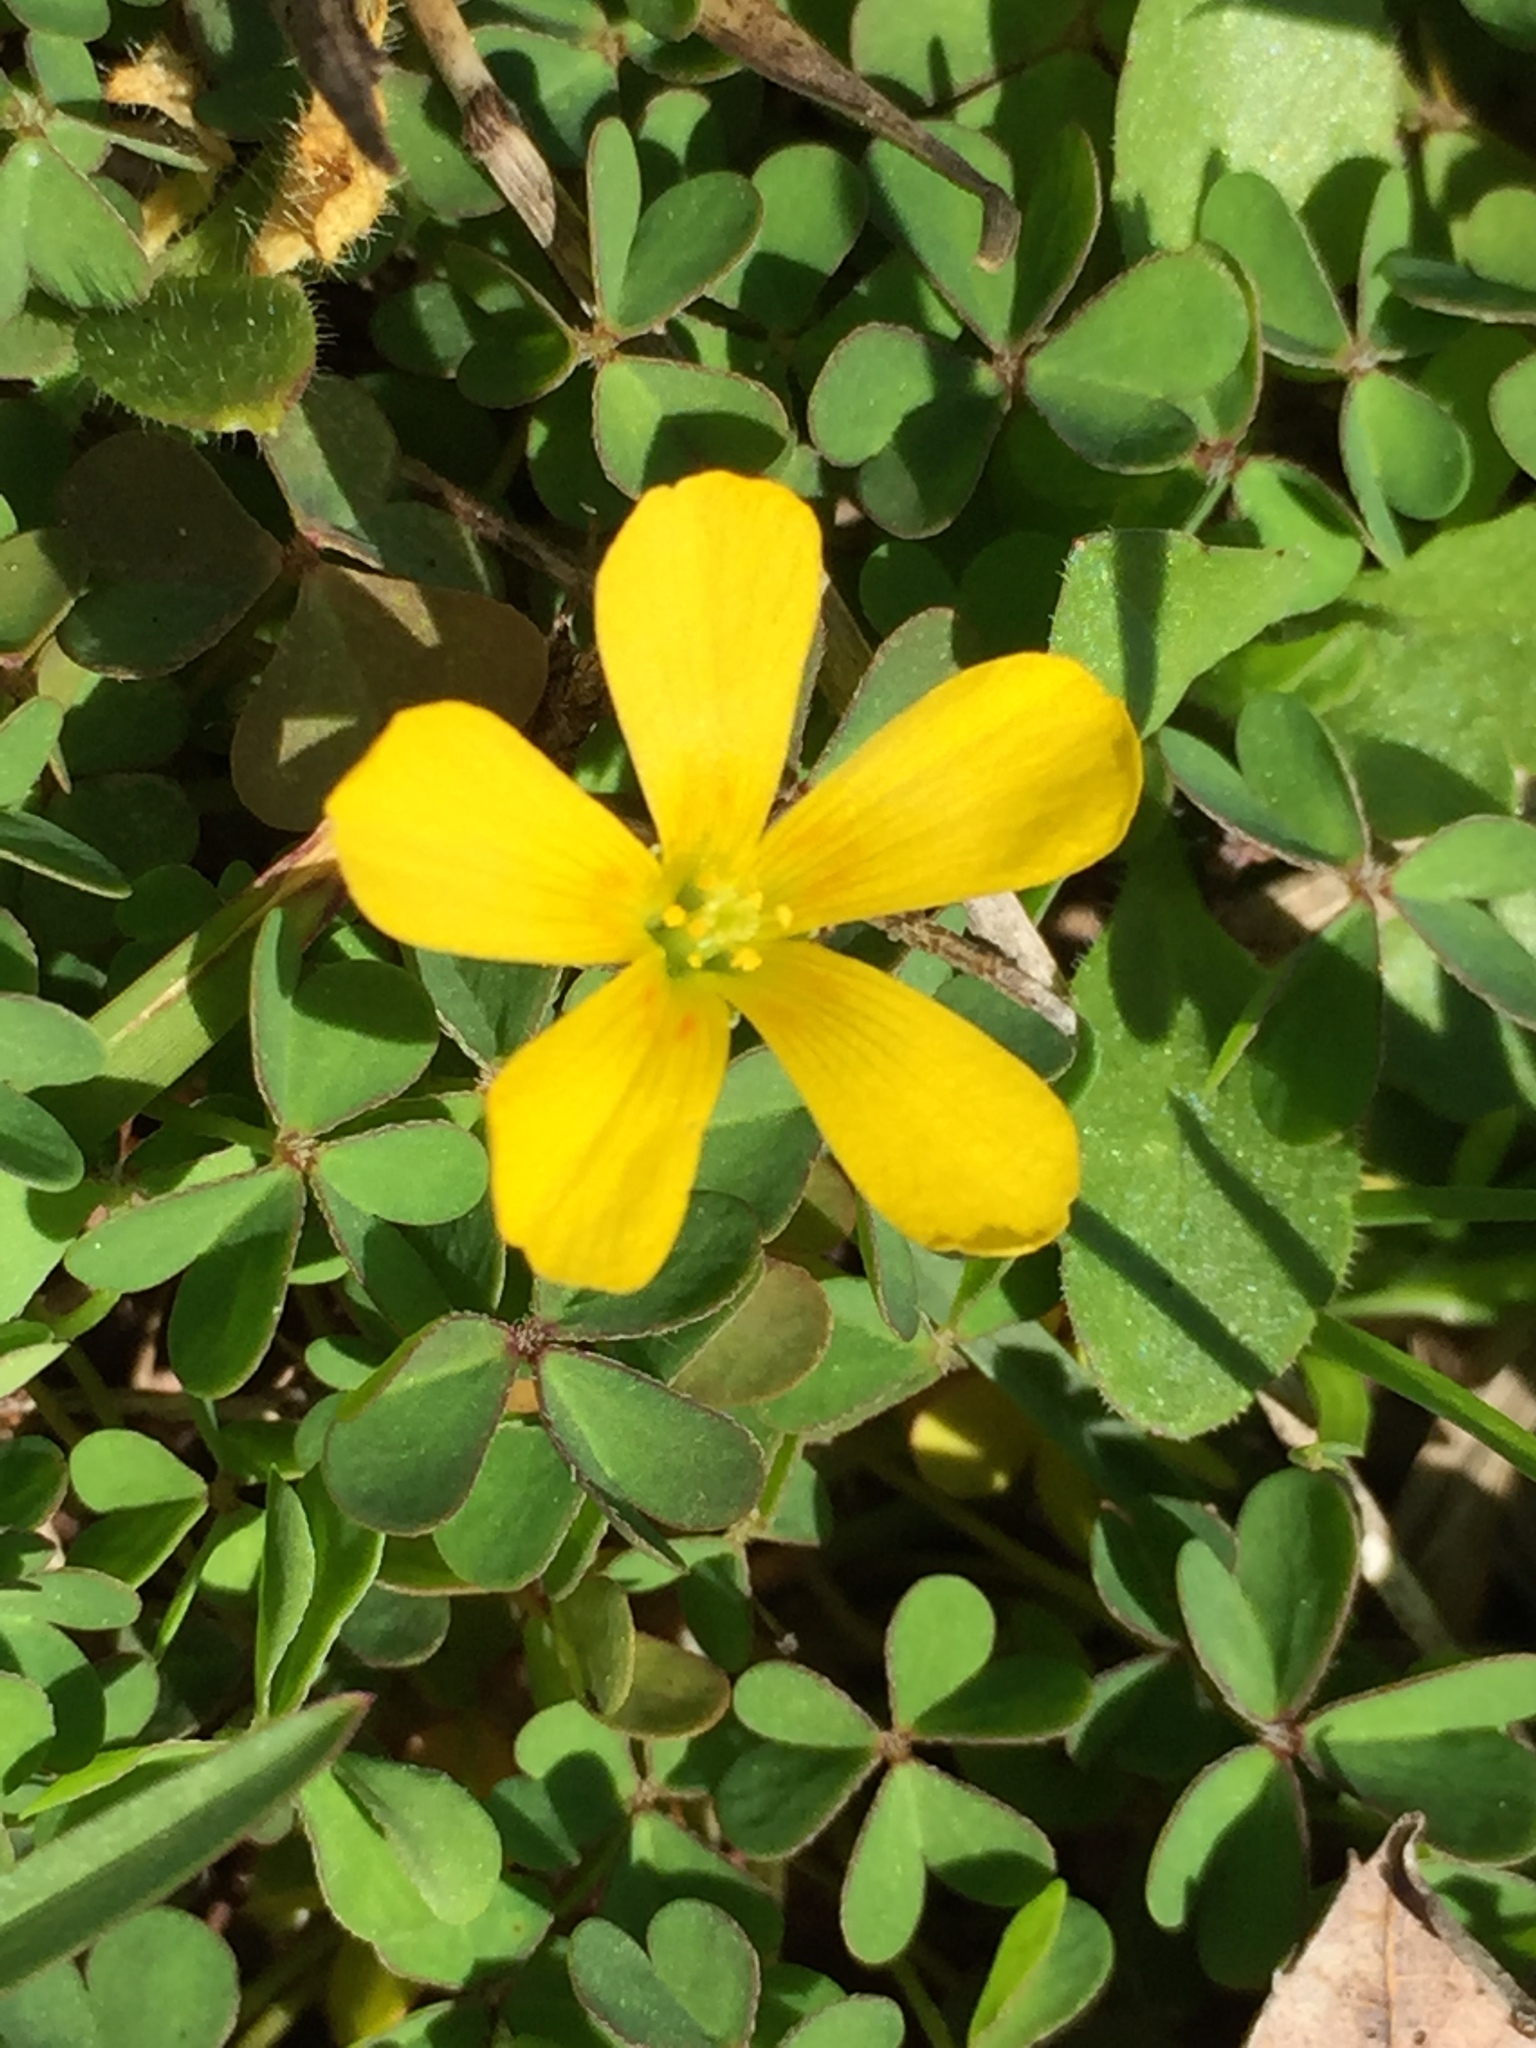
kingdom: Plantae
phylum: Tracheophyta
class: Magnoliopsida
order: Oxalidales
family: Oxalidaceae
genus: Oxalis
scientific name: Oxalis corniculata
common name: Procumbent yellow-sorrel
